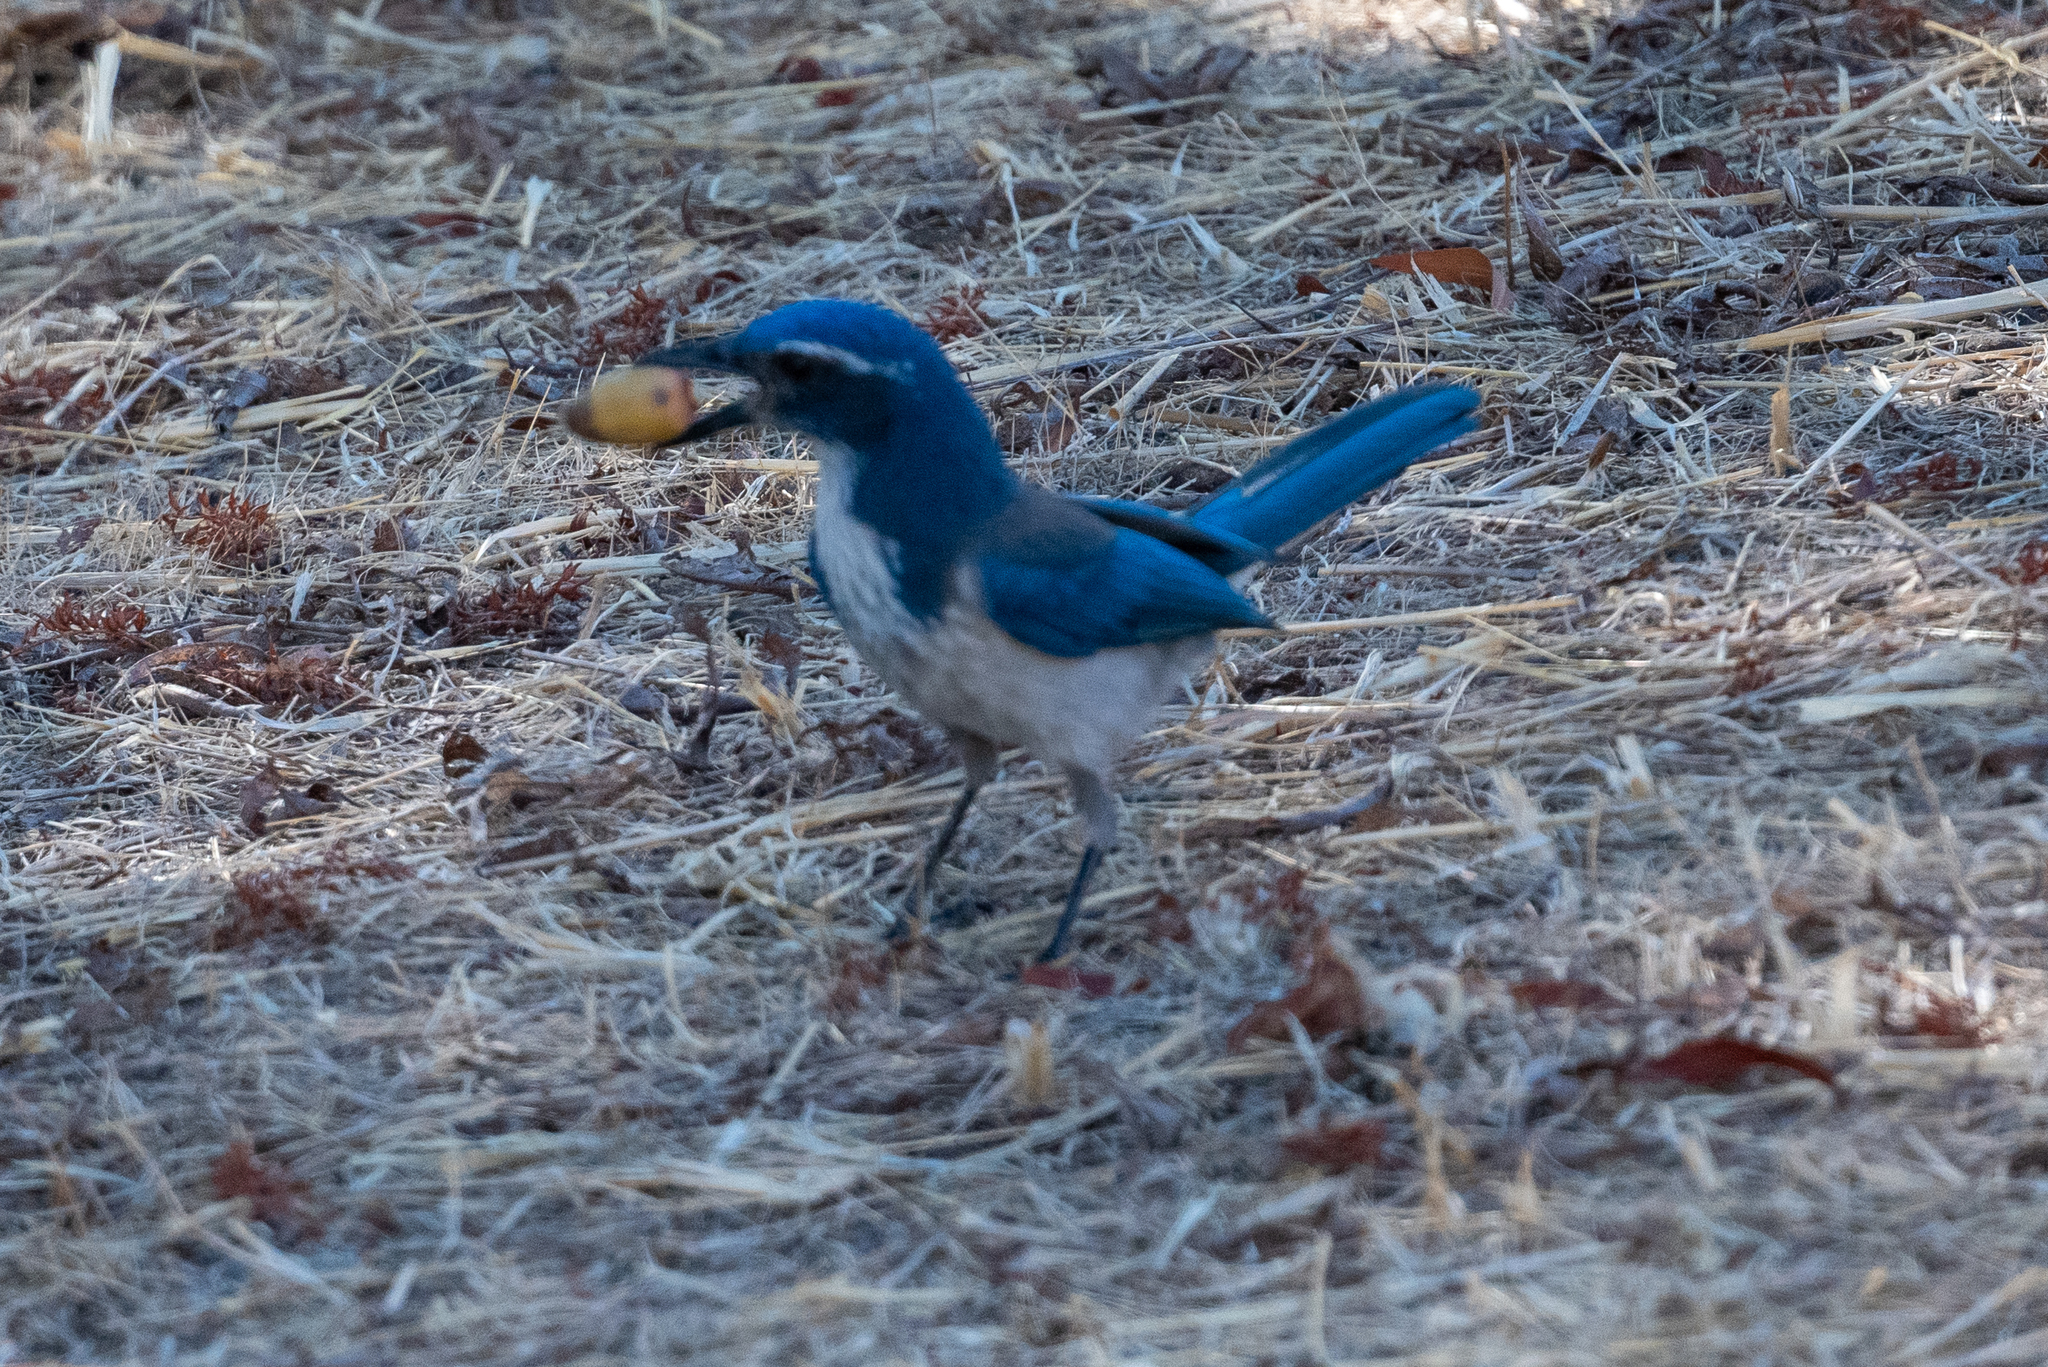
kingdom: Animalia
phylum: Chordata
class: Aves
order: Passeriformes
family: Corvidae
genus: Aphelocoma
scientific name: Aphelocoma californica
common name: California scrub-jay
